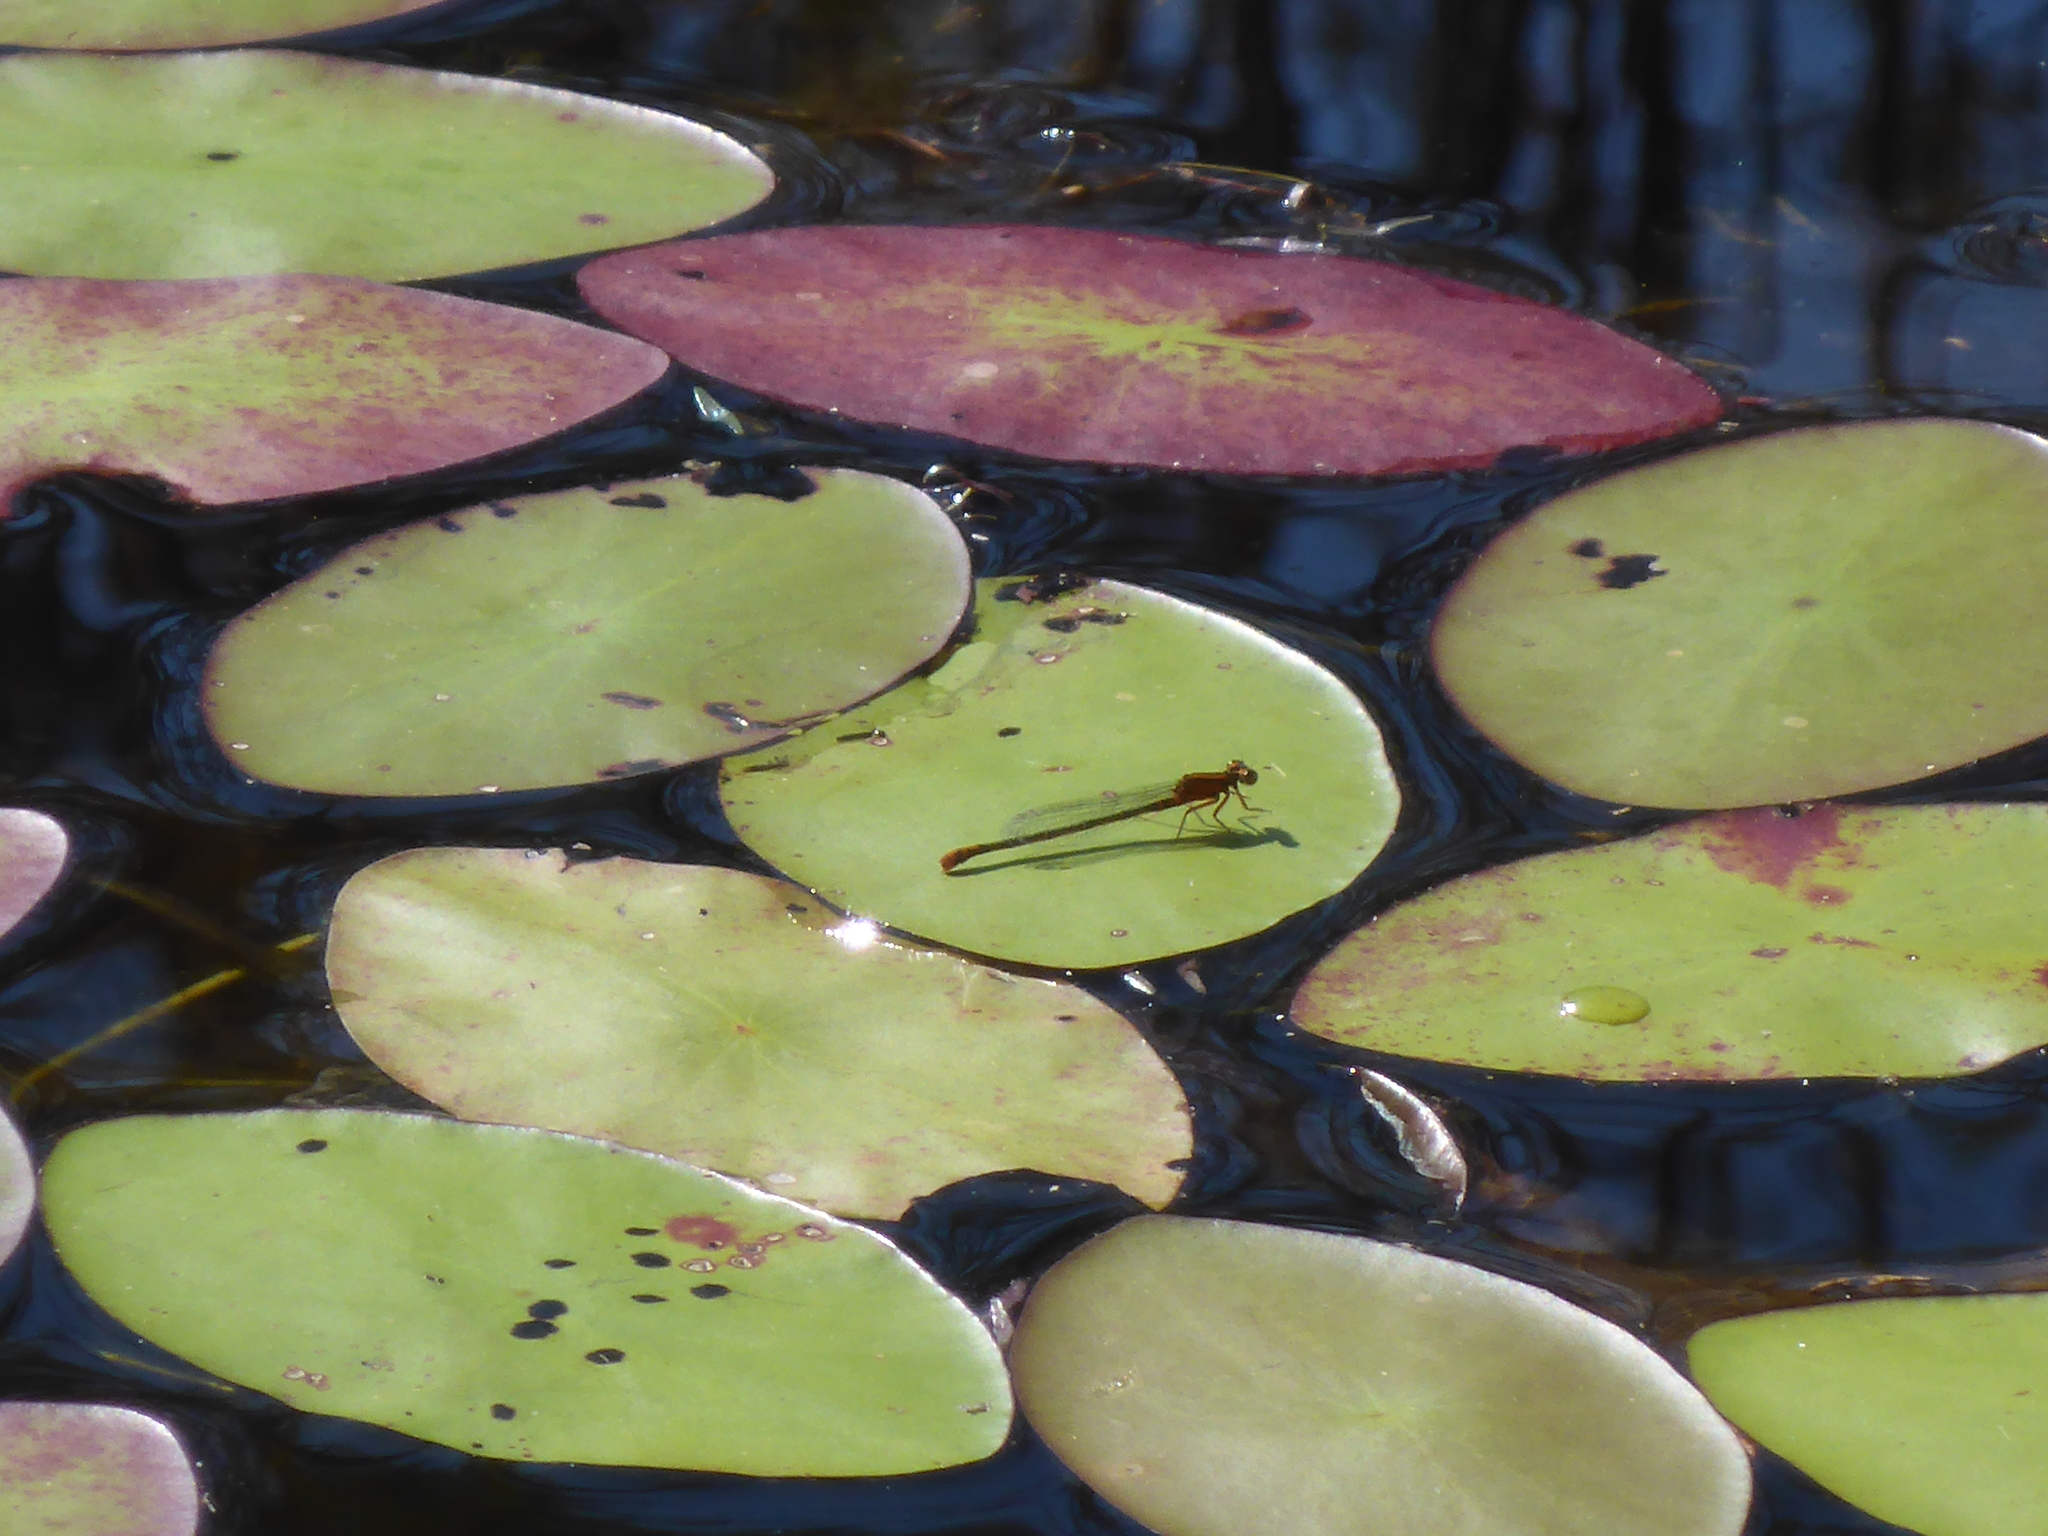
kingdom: Animalia
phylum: Arthropoda
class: Insecta
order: Odonata
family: Coenagrionidae
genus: Ischnura
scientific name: Ischnura kellicotti
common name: Lilypad forktail
